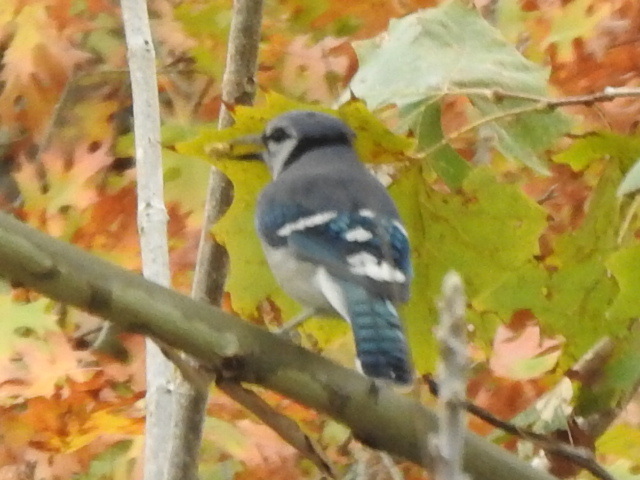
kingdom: Animalia
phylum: Chordata
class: Aves
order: Passeriformes
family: Corvidae
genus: Cyanocitta
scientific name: Cyanocitta cristata
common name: Blue jay
